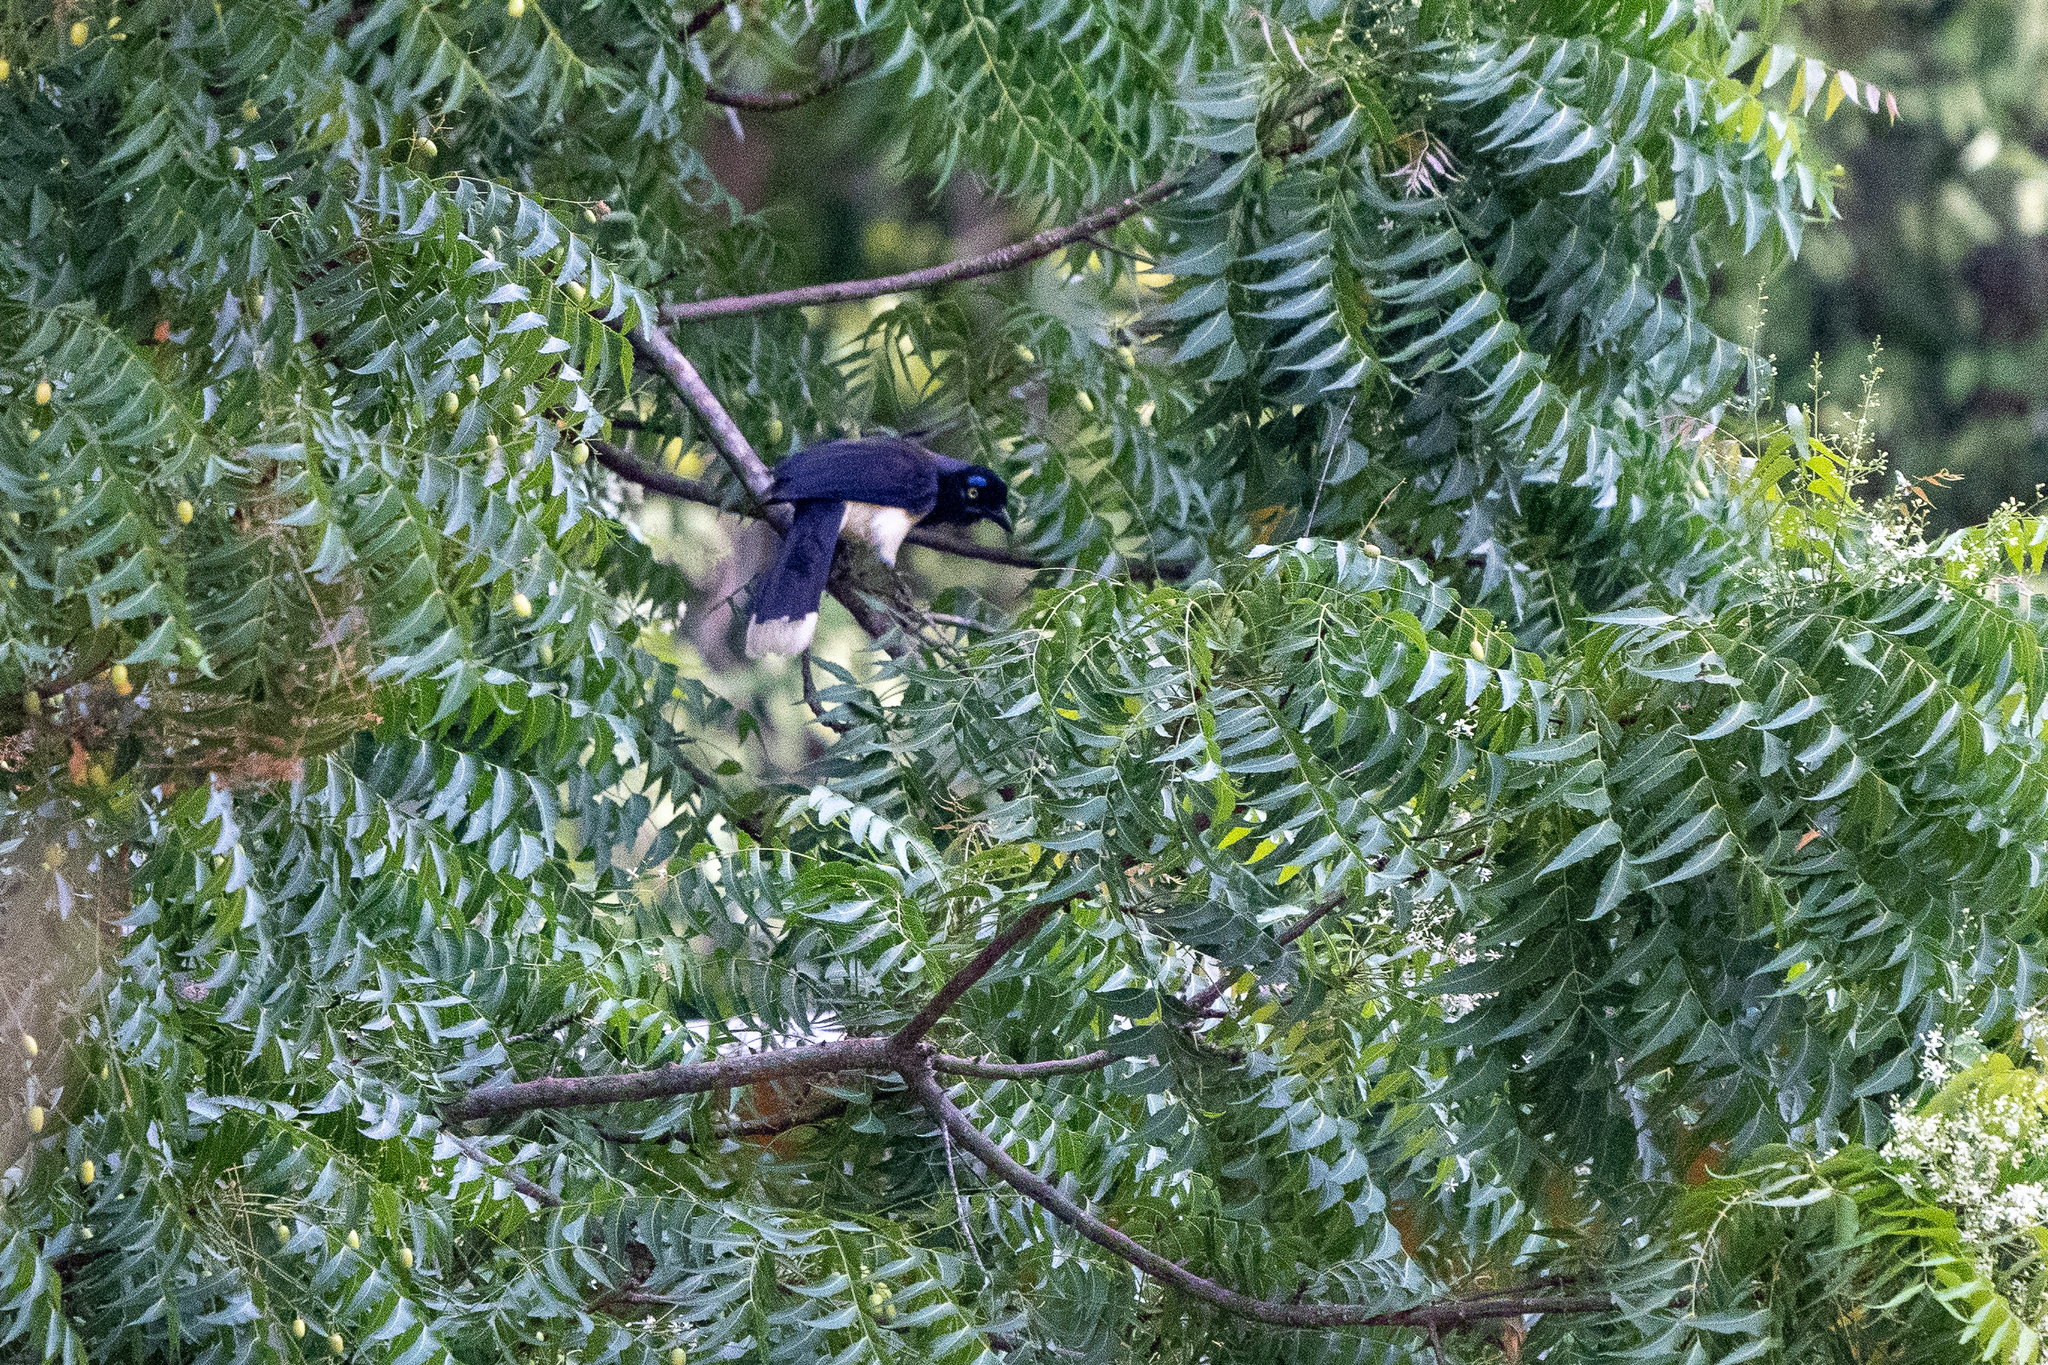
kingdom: Animalia
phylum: Chordata
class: Aves
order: Passeriformes
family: Corvidae
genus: Cyanocorax
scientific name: Cyanocorax affinis
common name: Black-chested jay
